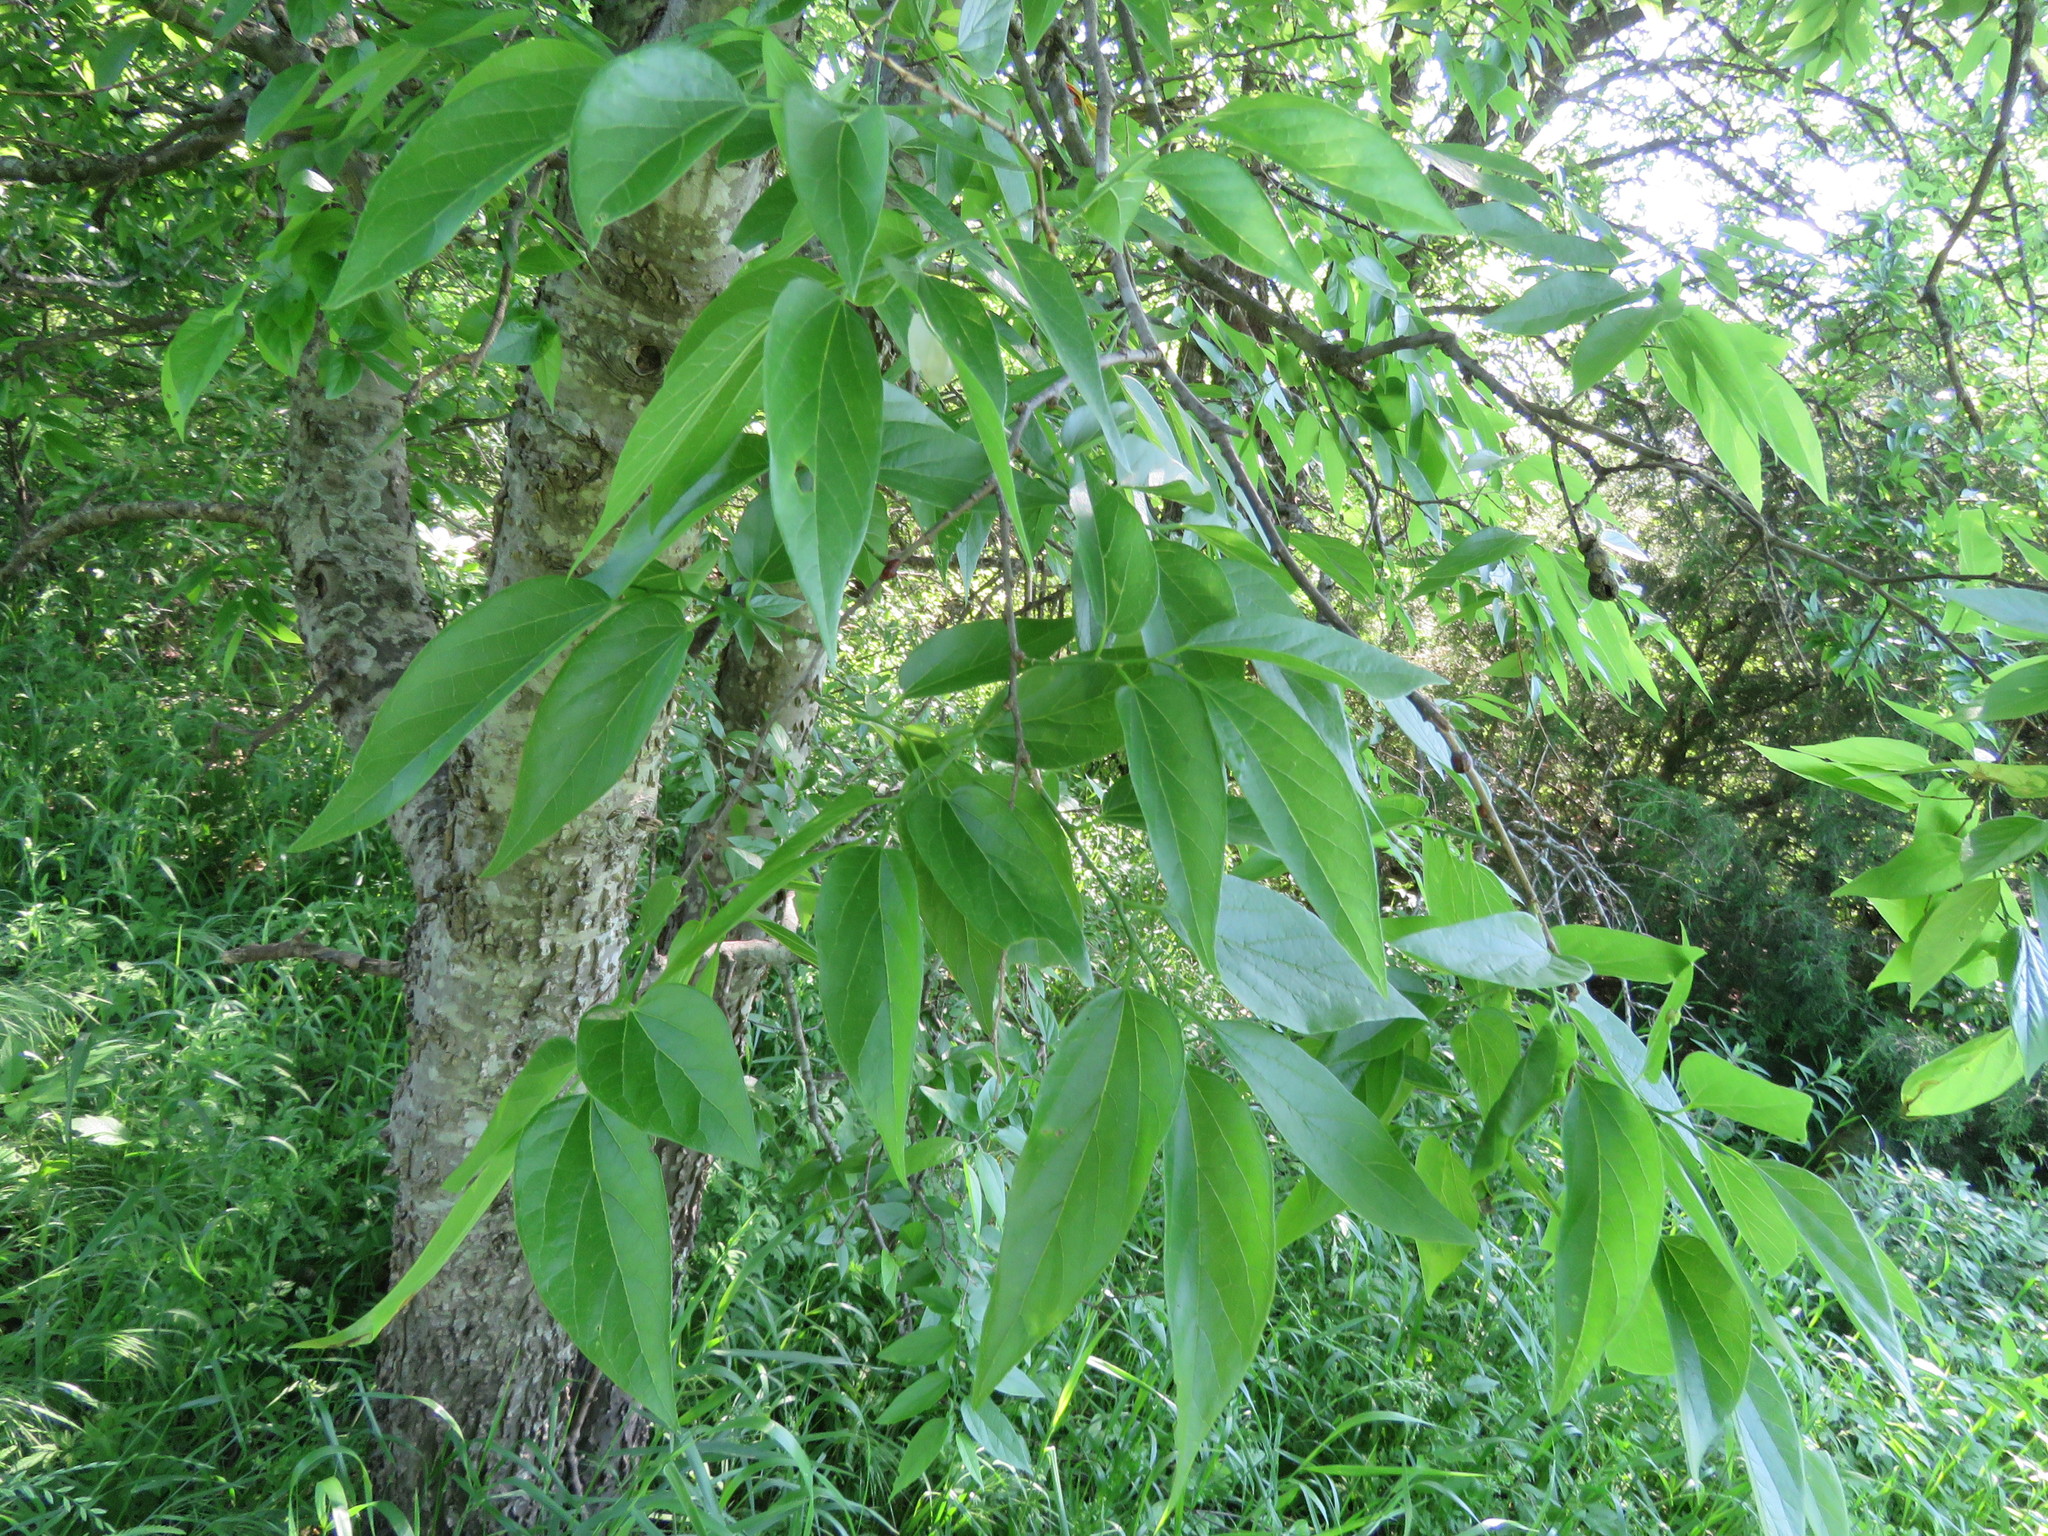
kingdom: Plantae
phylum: Tracheophyta
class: Magnoliopsida
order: Rosales
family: Cannabaceae
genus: Celtis
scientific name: Celtis laevigata
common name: Sugarberry
